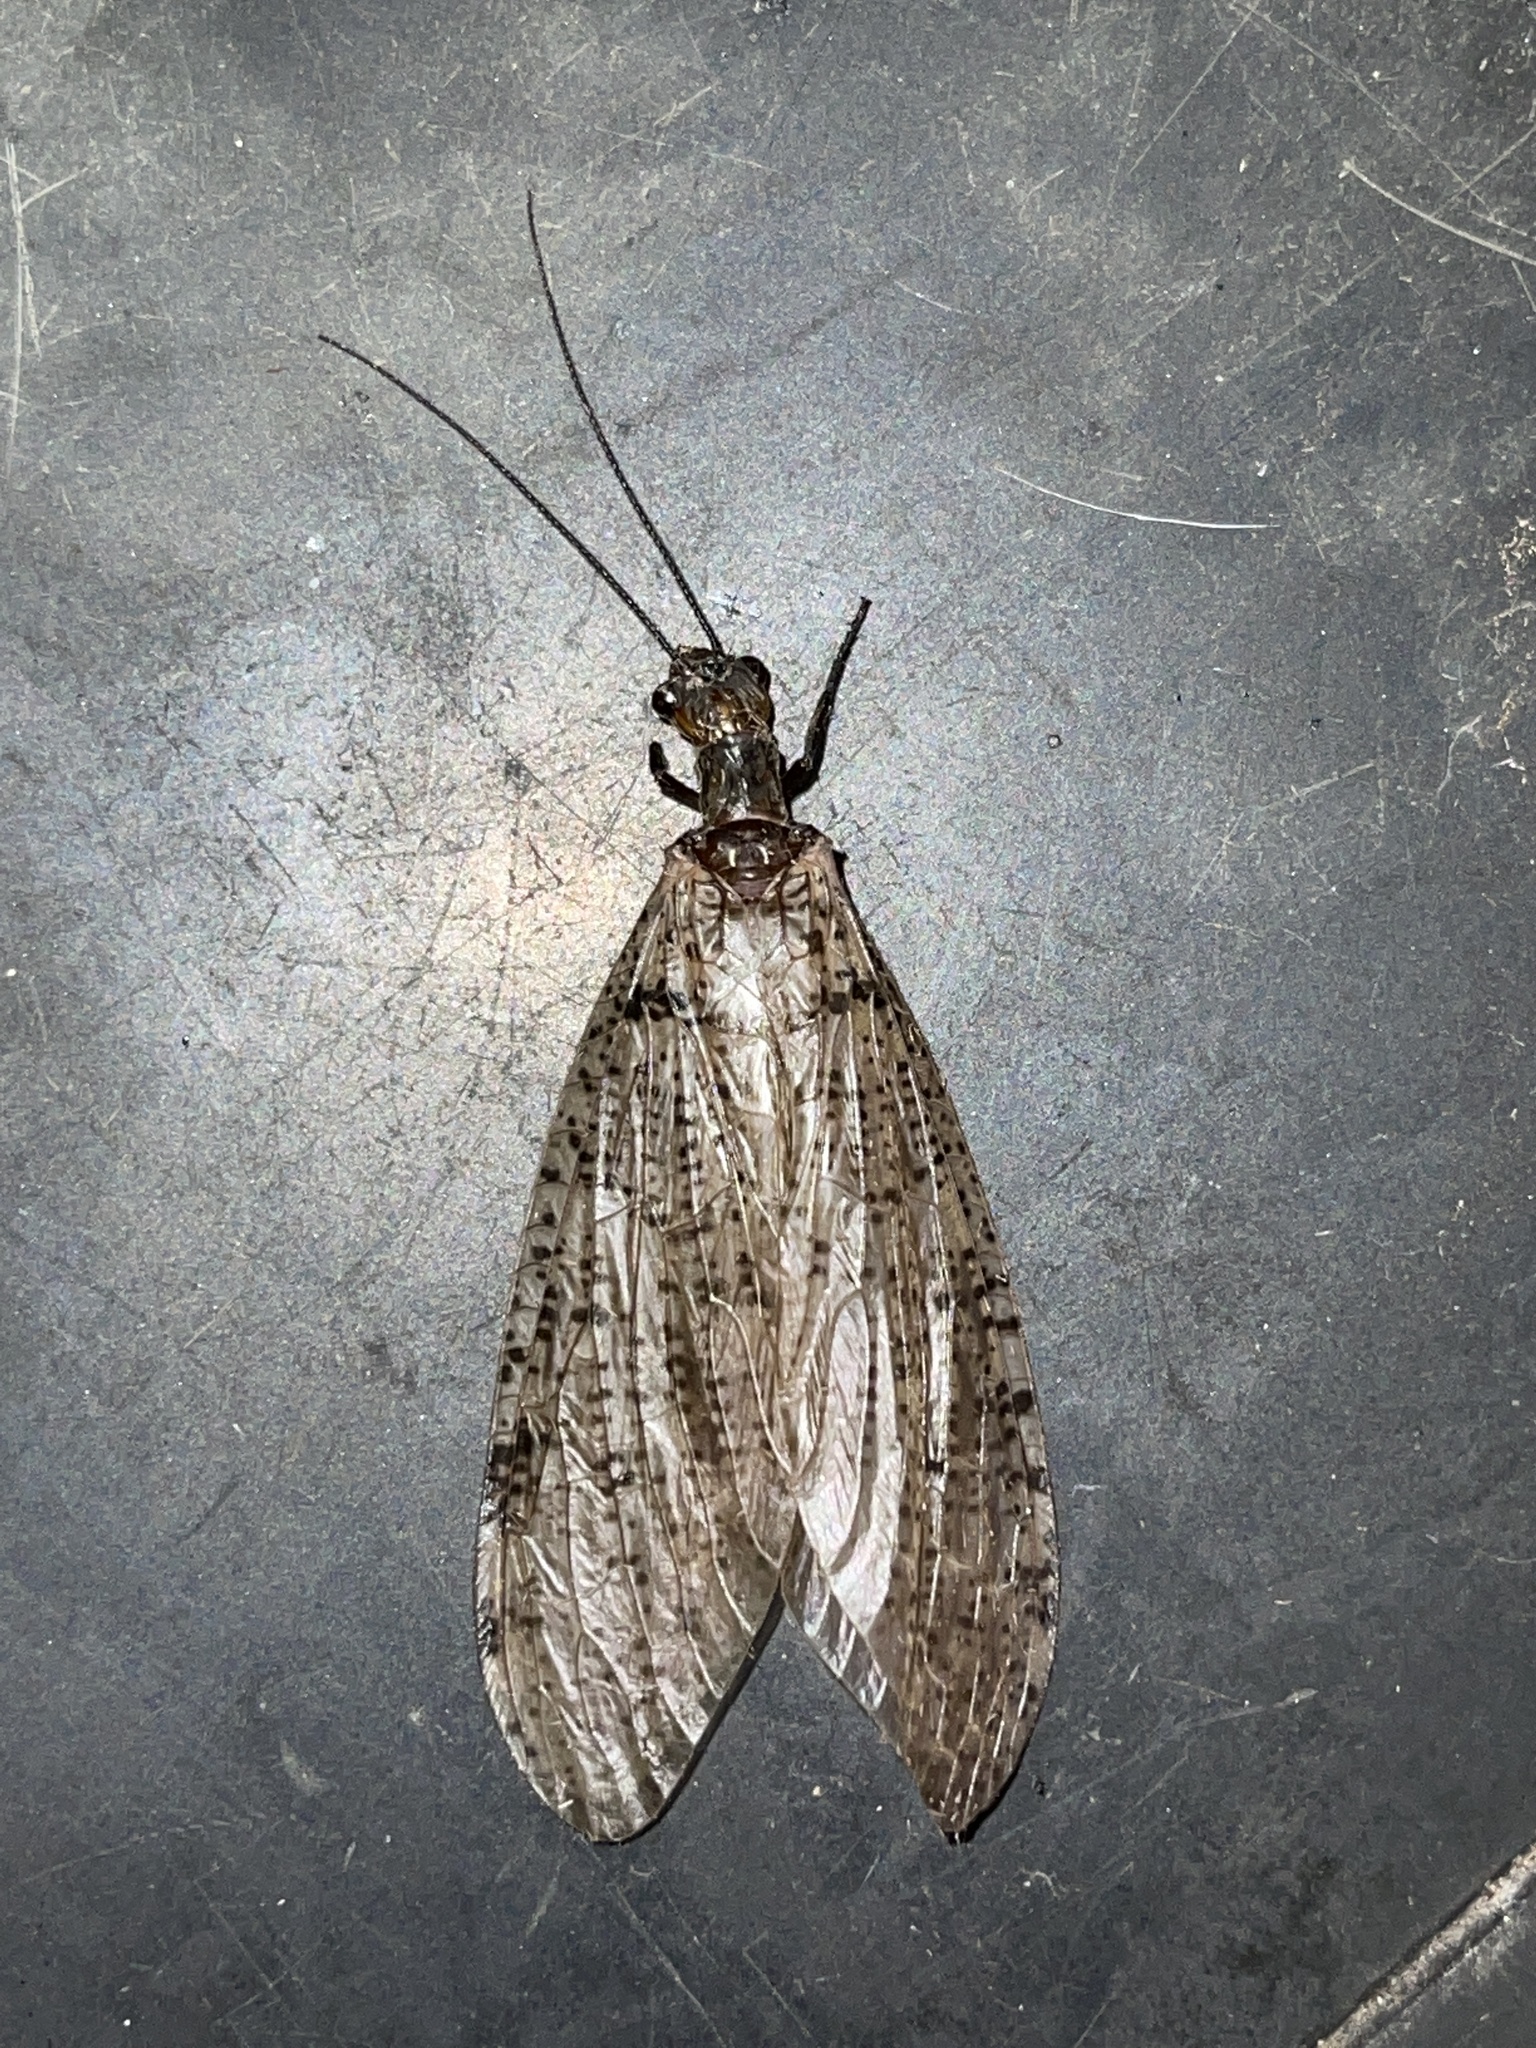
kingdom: Animalia
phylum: Arthropoda
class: Insecta
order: Megaloptera
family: Corydalidae
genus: Neohermes
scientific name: Neohermes concolor
